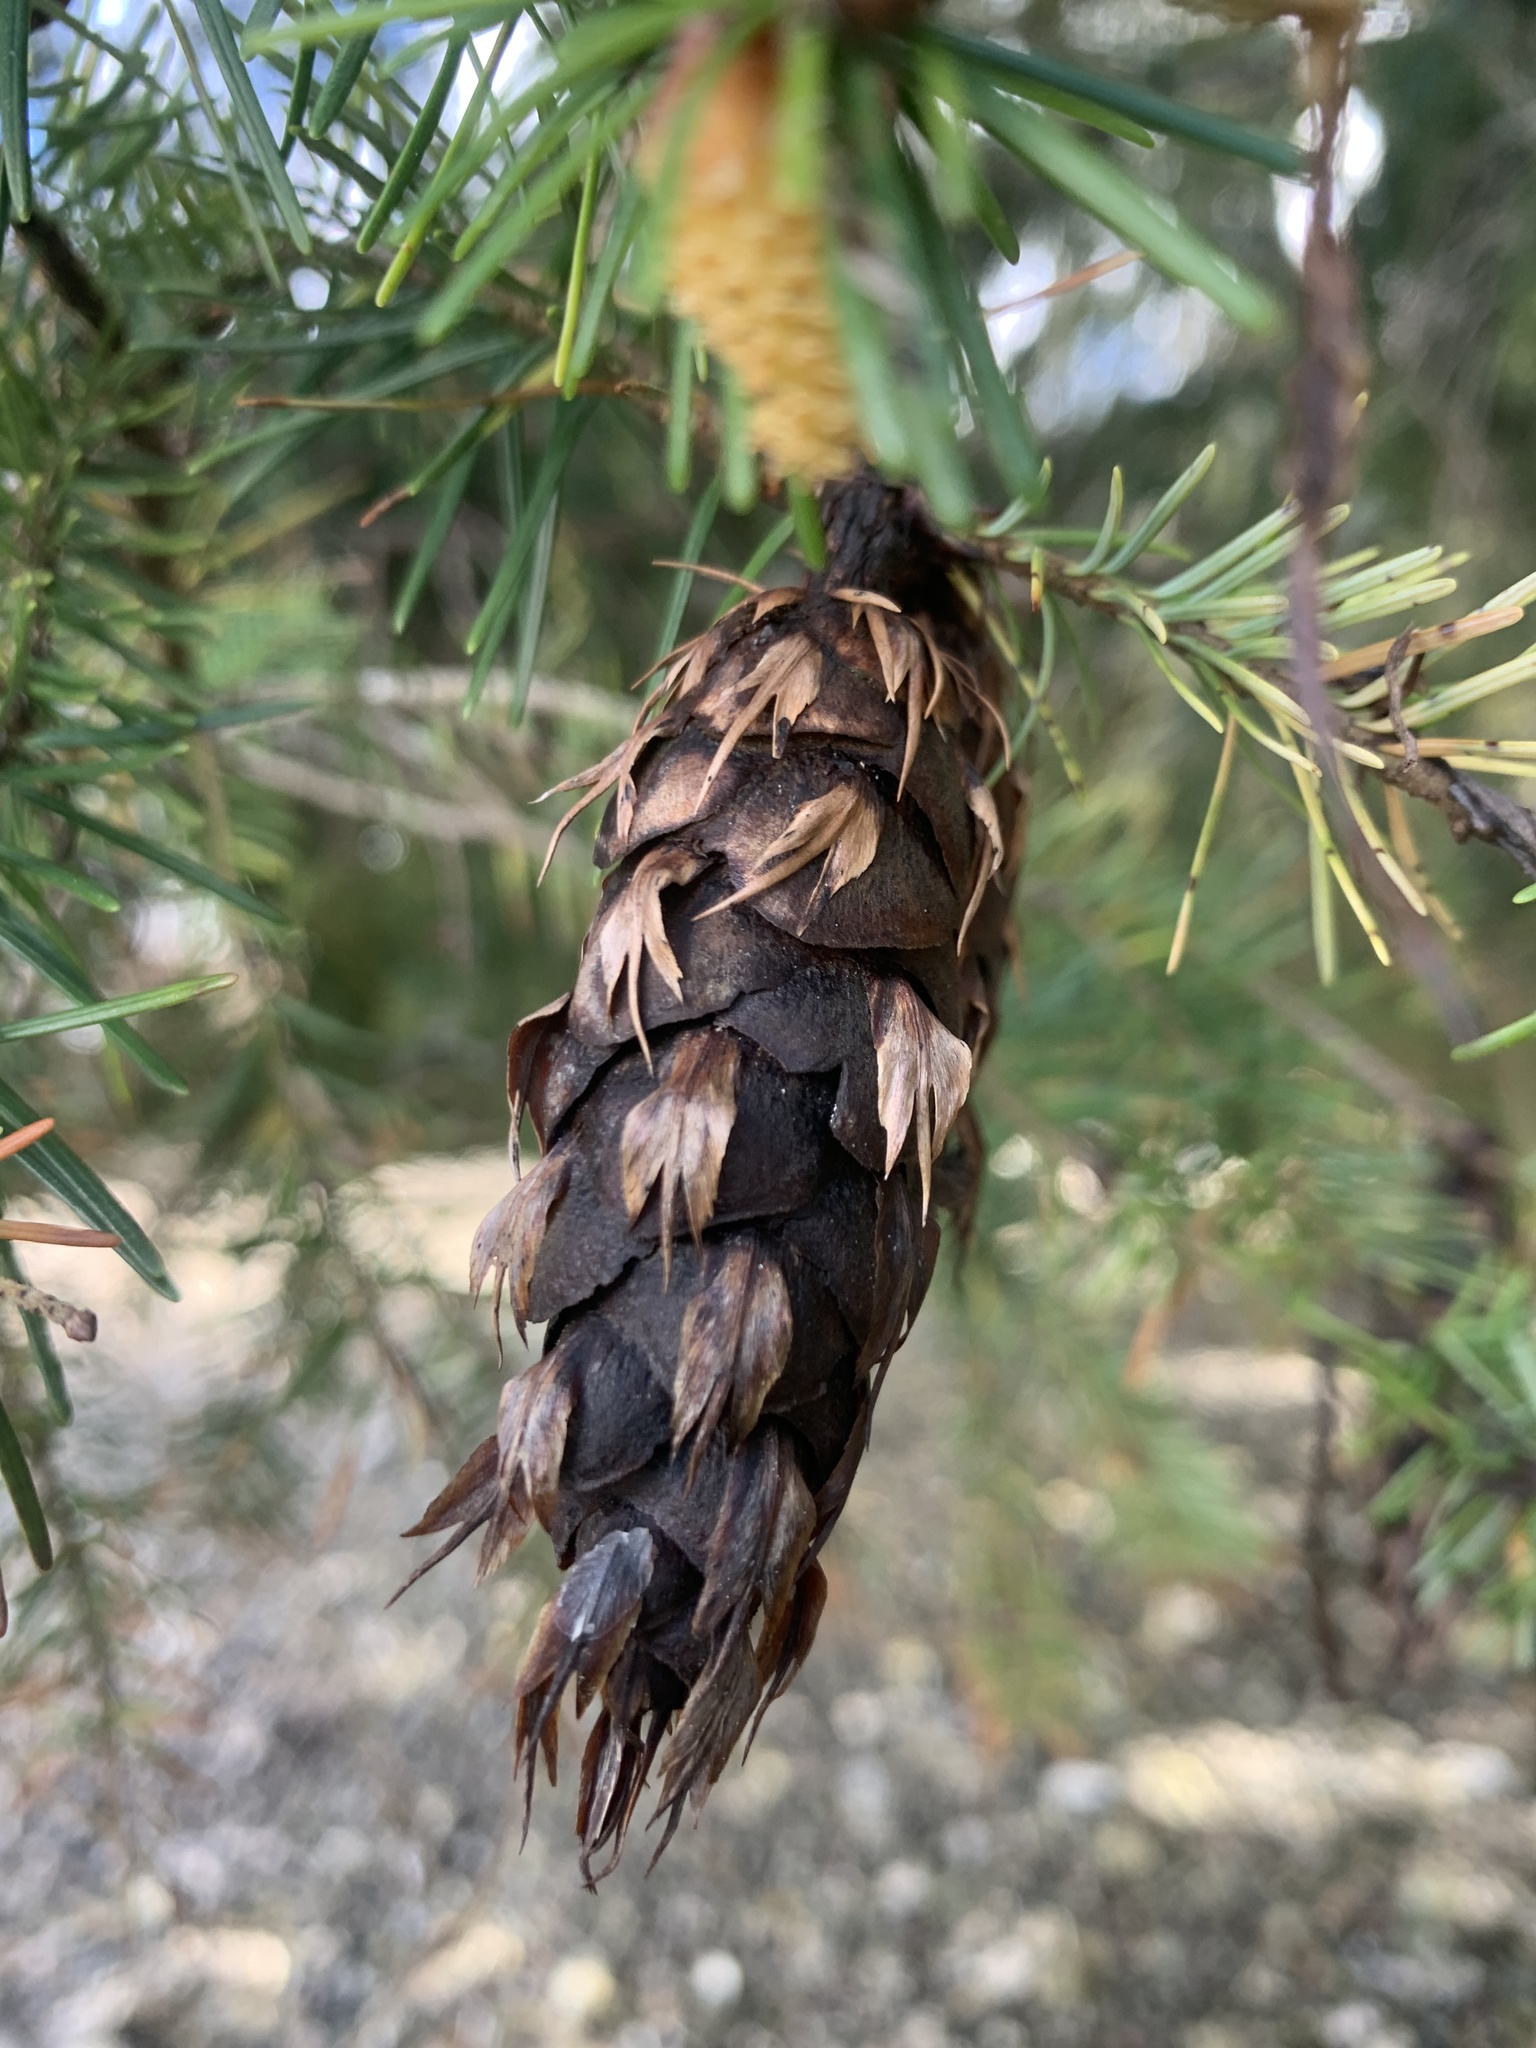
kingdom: Plantae
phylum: Tracheophyta
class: Pinopsida
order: Pinales
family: Pinaceae
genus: Pseudotsuga
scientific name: Pseudotsuga menziesii
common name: Douglas fir
